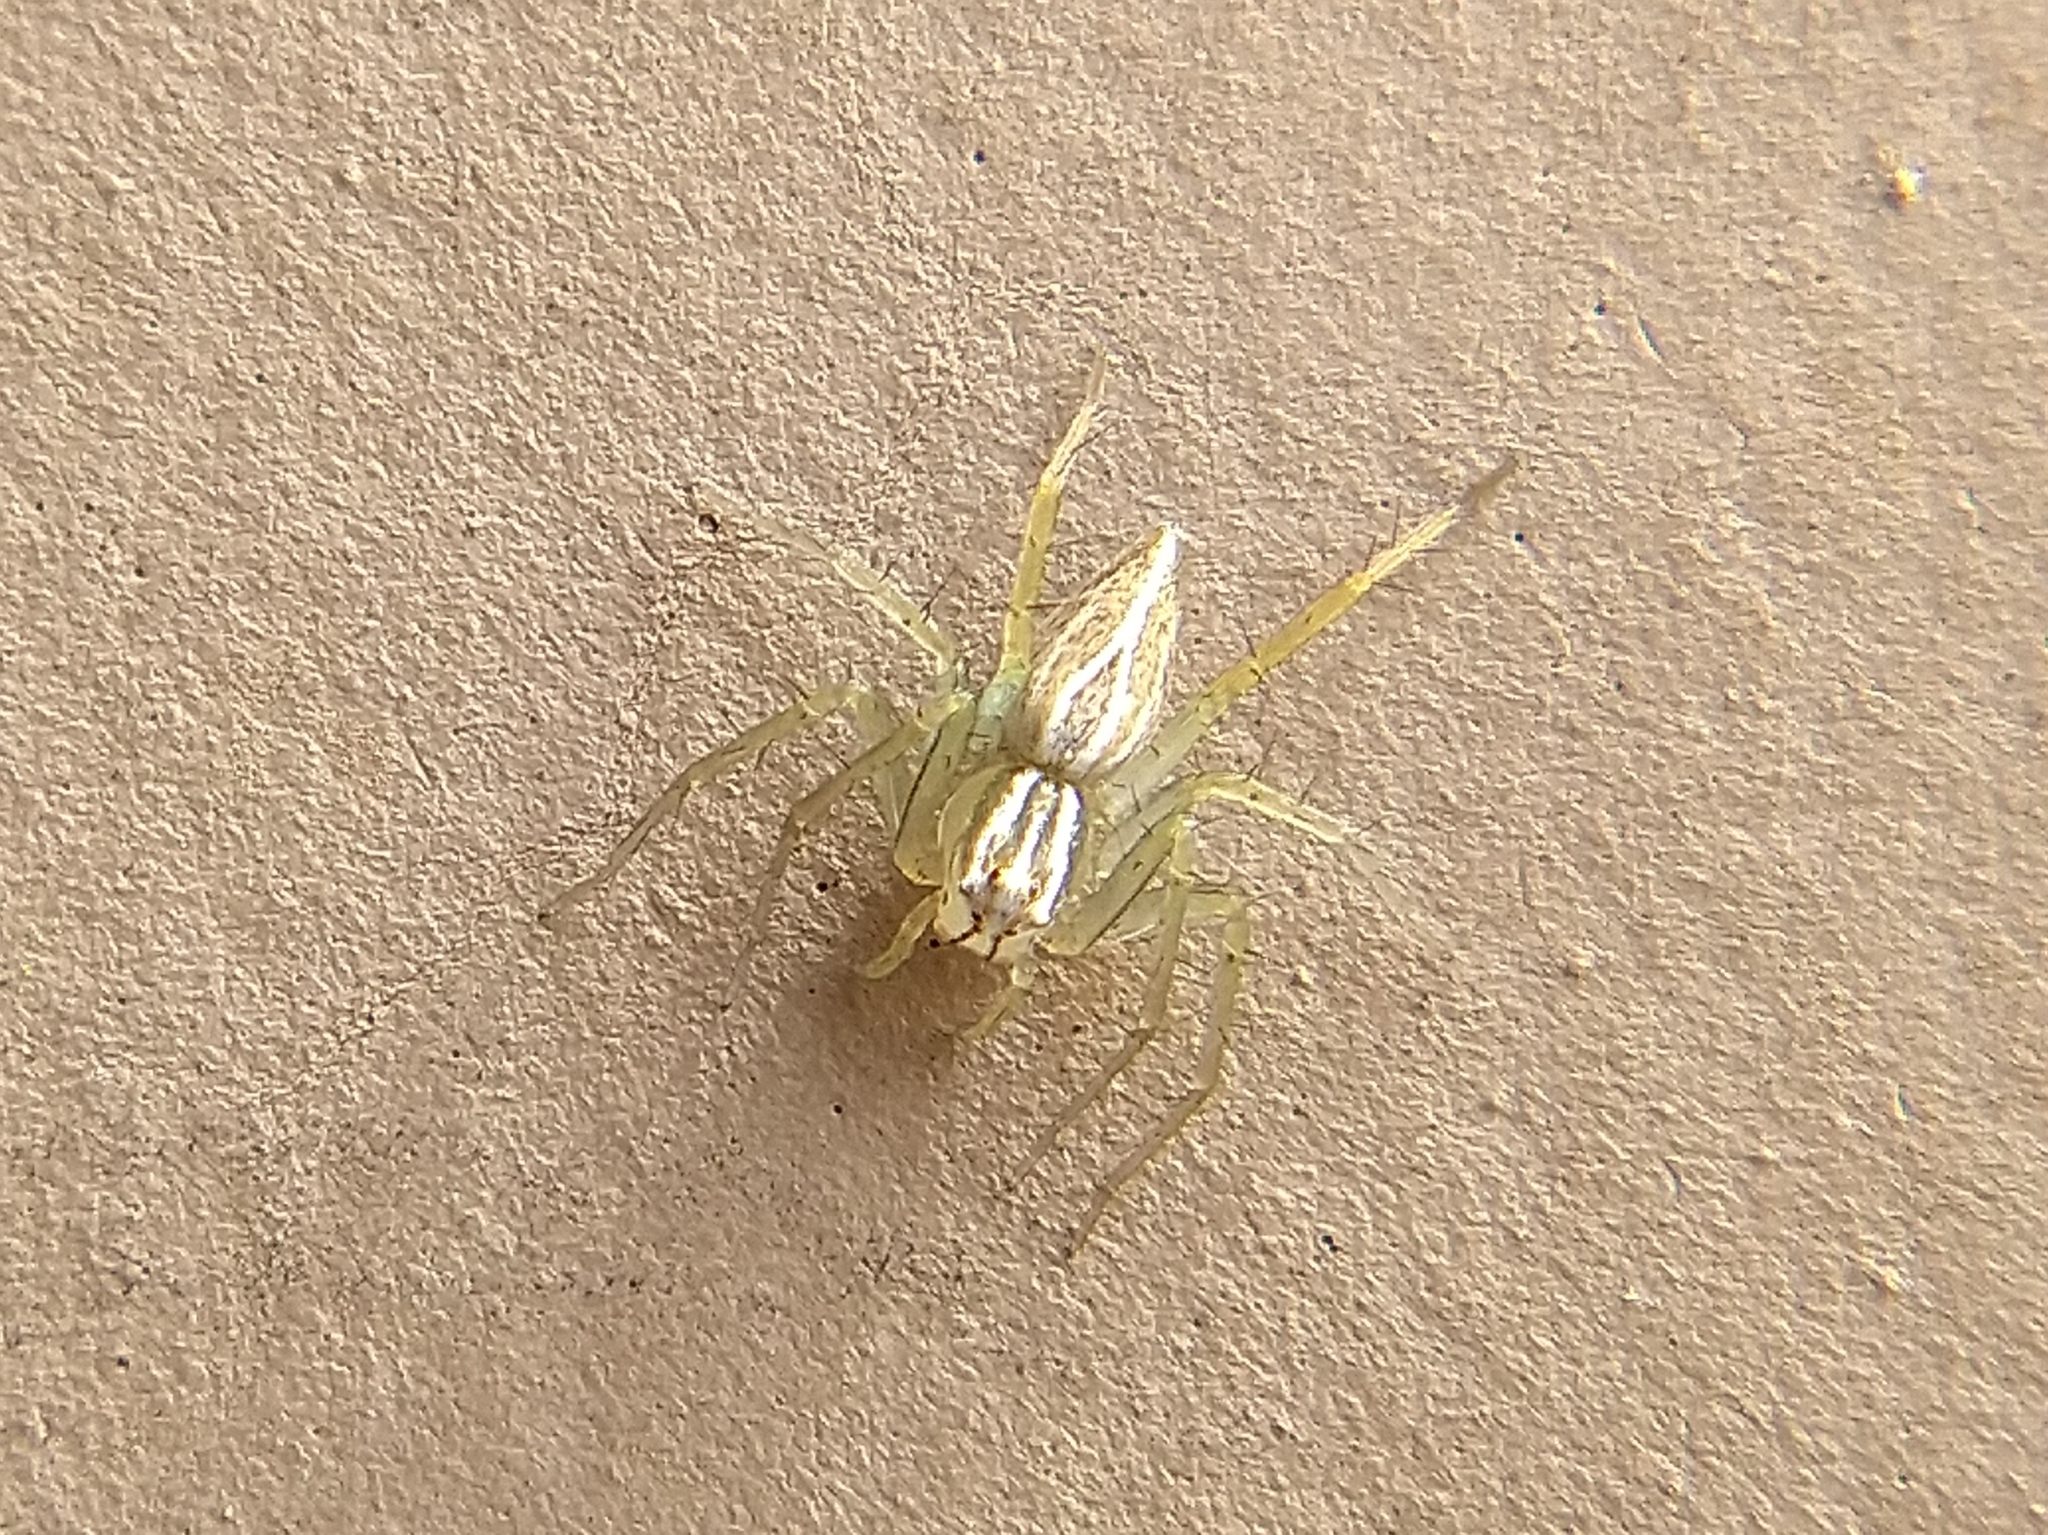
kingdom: Animalia
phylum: Arthropoda
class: Arachnida
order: Araneae
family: Oxyopidae
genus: Oxyopes
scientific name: Oxyopes salticus
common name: Lynx spiders
